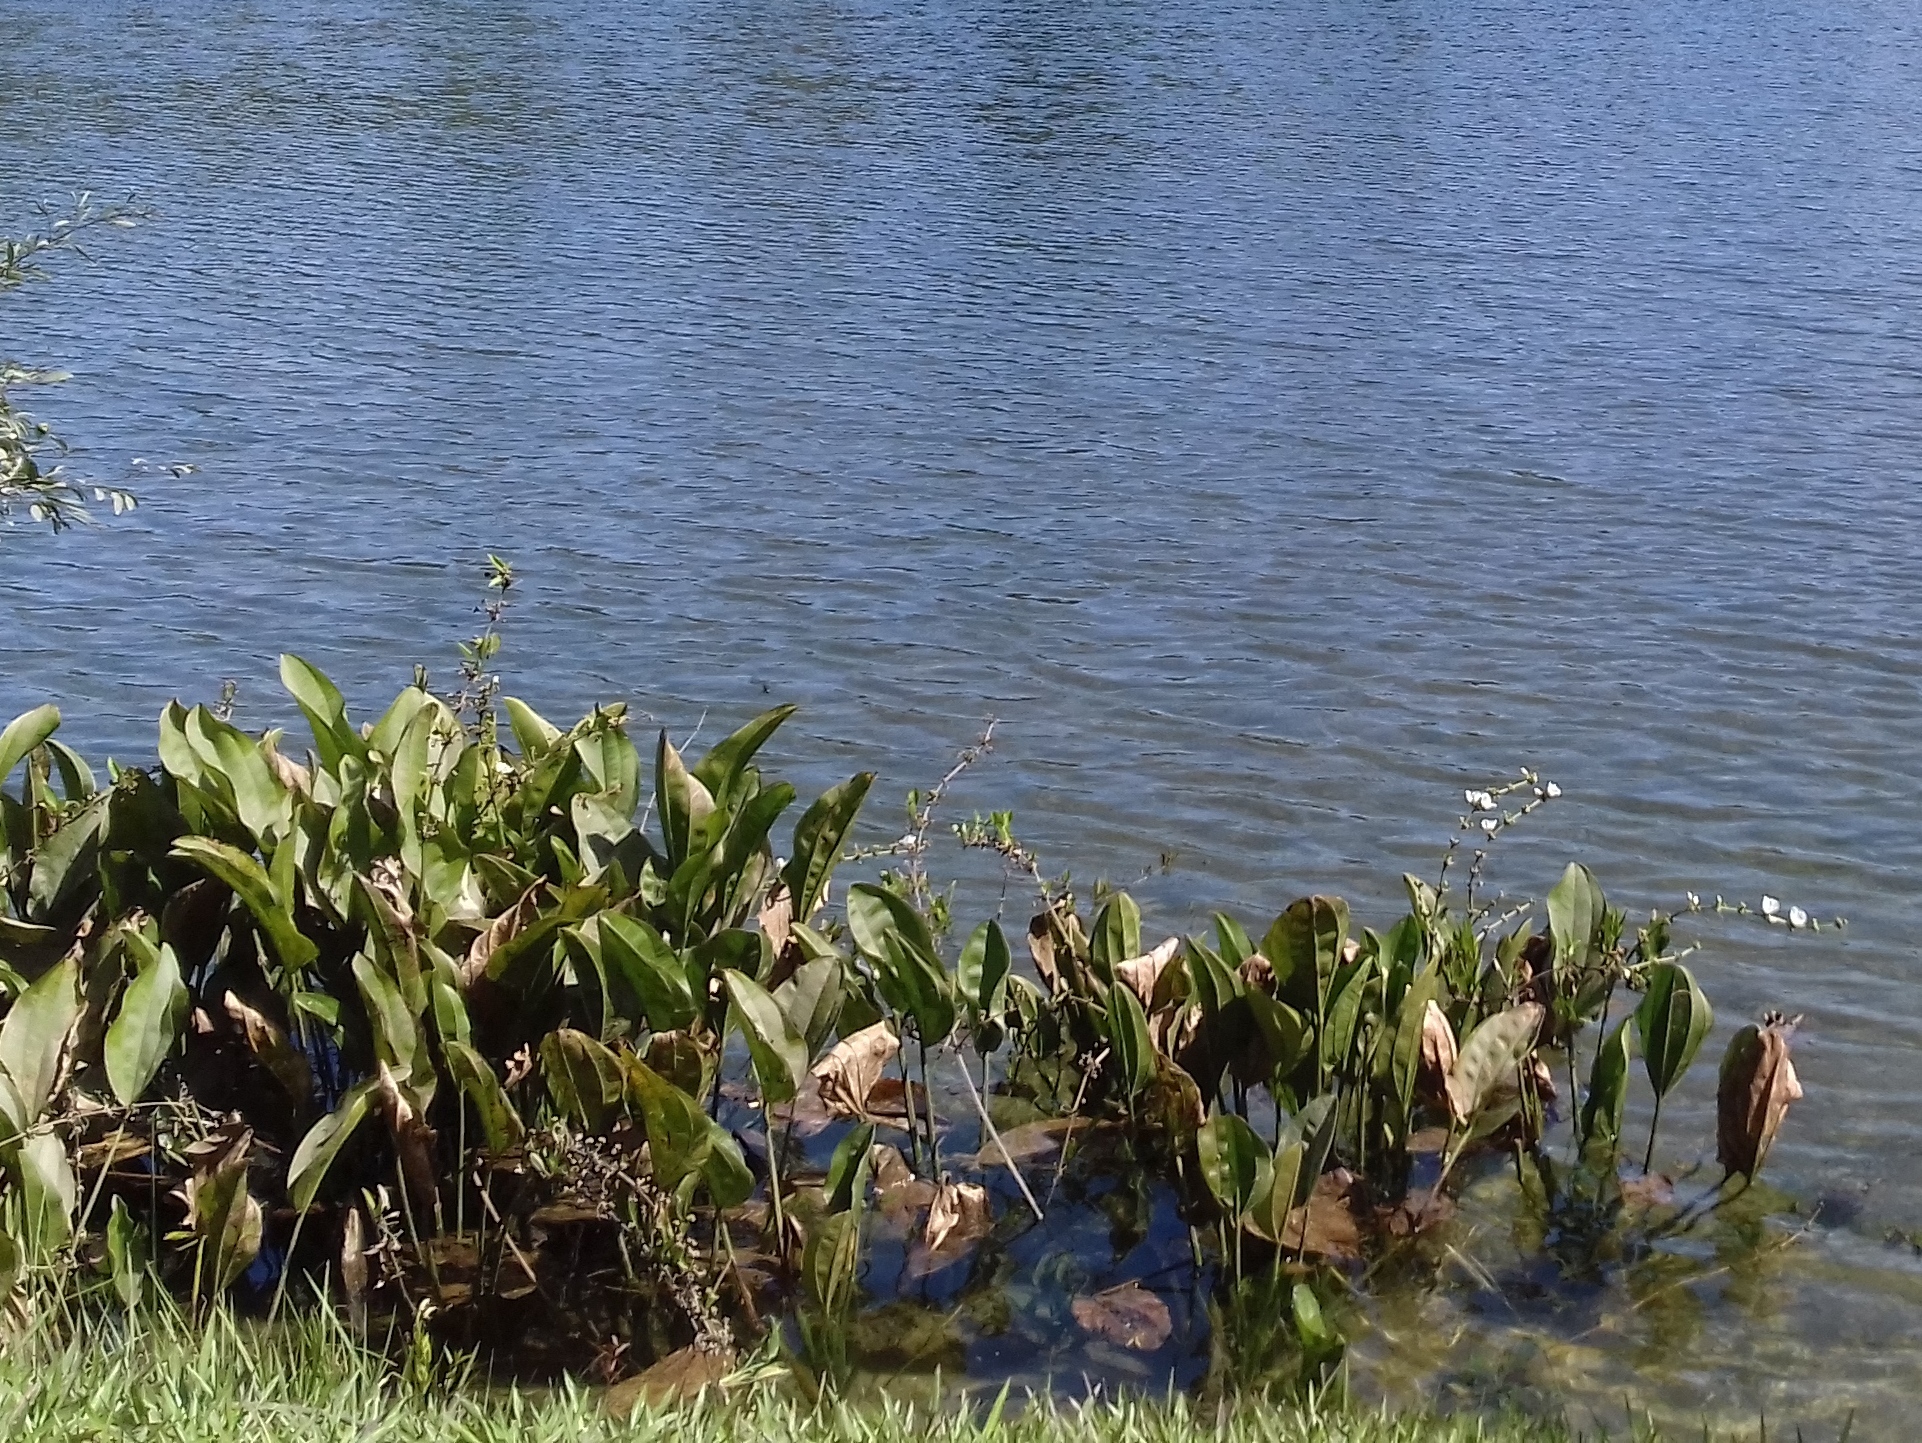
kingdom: Plantae
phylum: Tracheophyta
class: Liliopsida
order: Alismatales
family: Alismataceae
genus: Aquarius
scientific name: Aquarius grandiflorus
